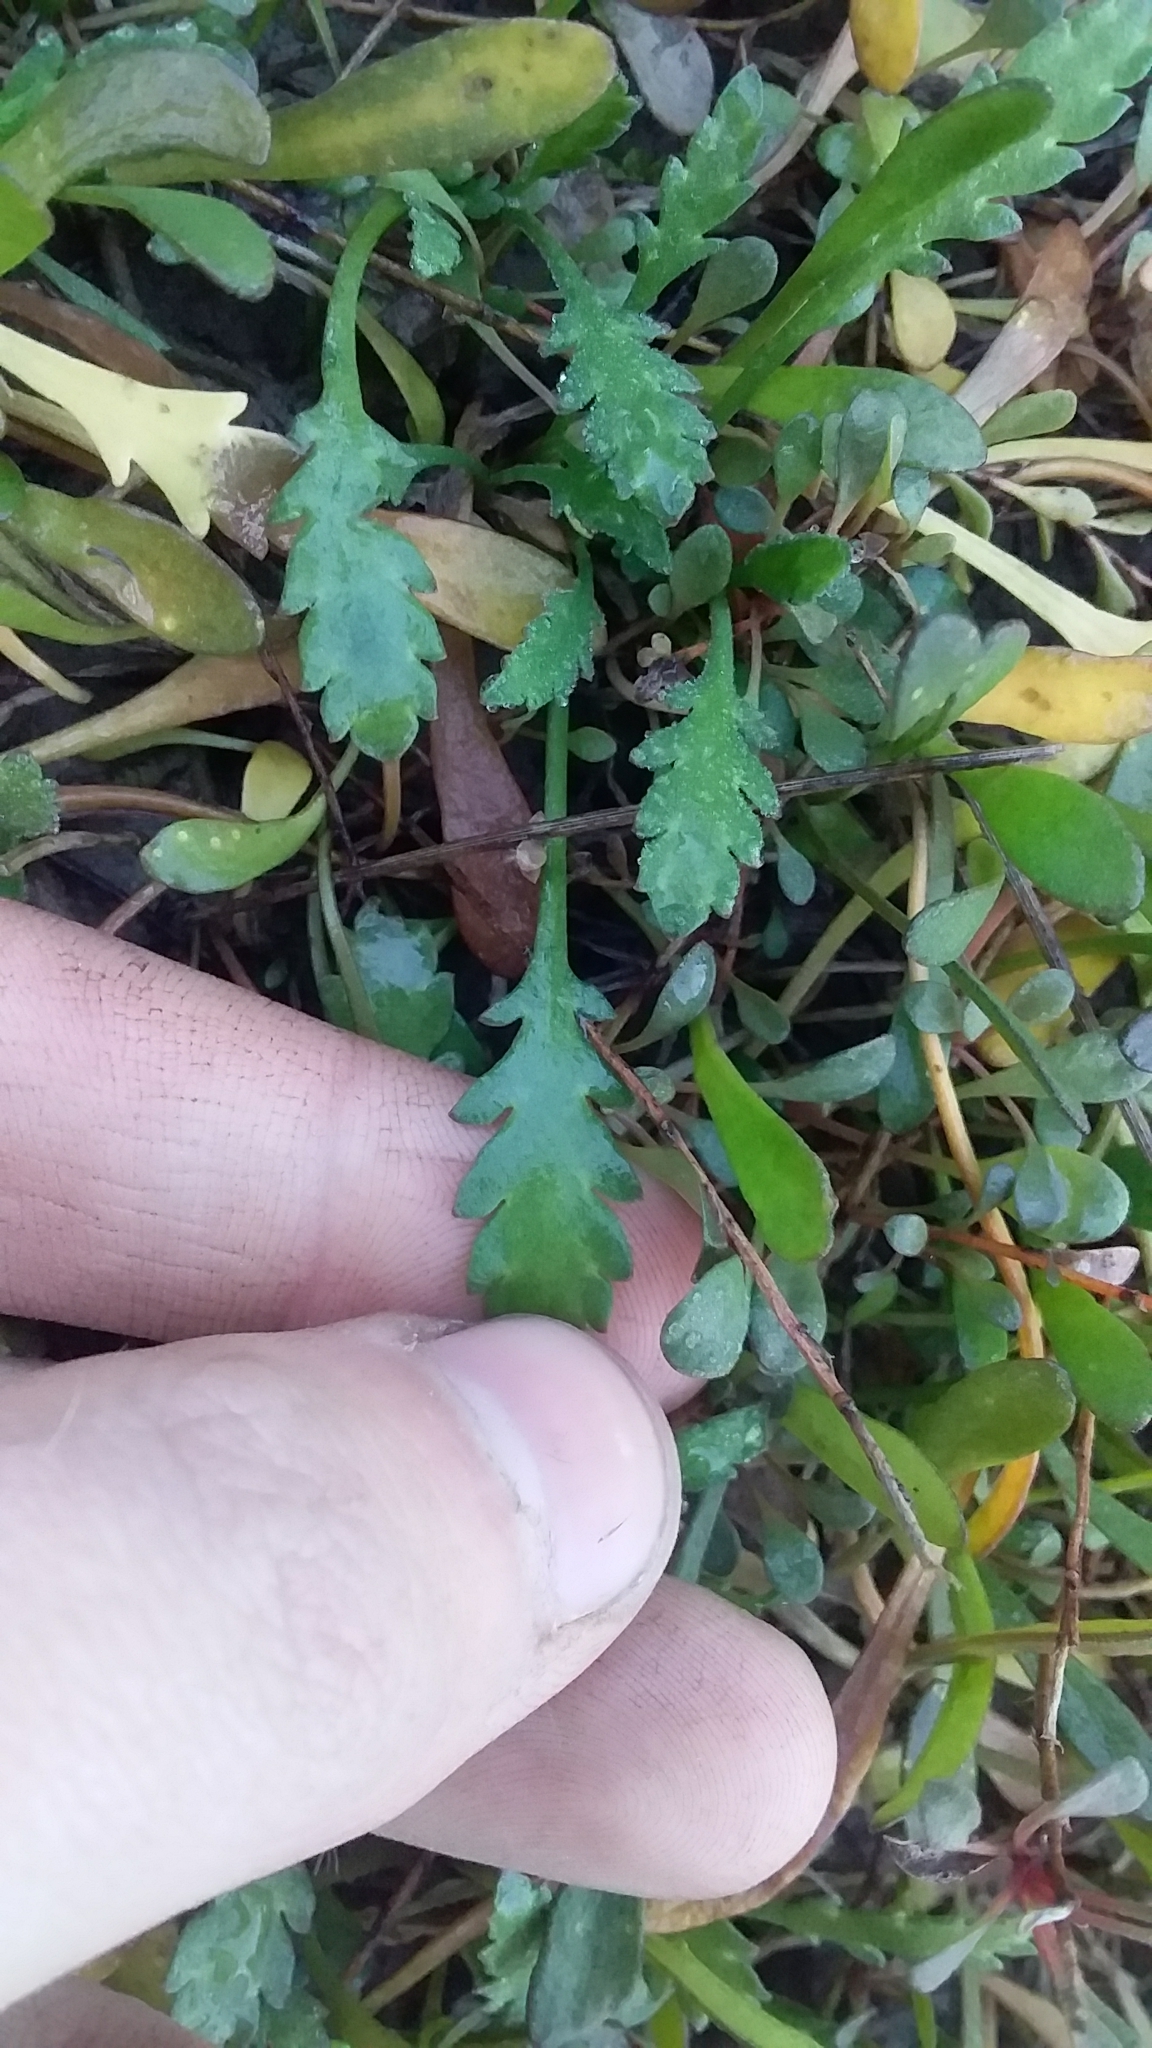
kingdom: Plantae
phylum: Tracheophyta
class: Magnoliopsida
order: Asterales
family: Asteraceae
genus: Leptinella
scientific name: Leptinella dioica
